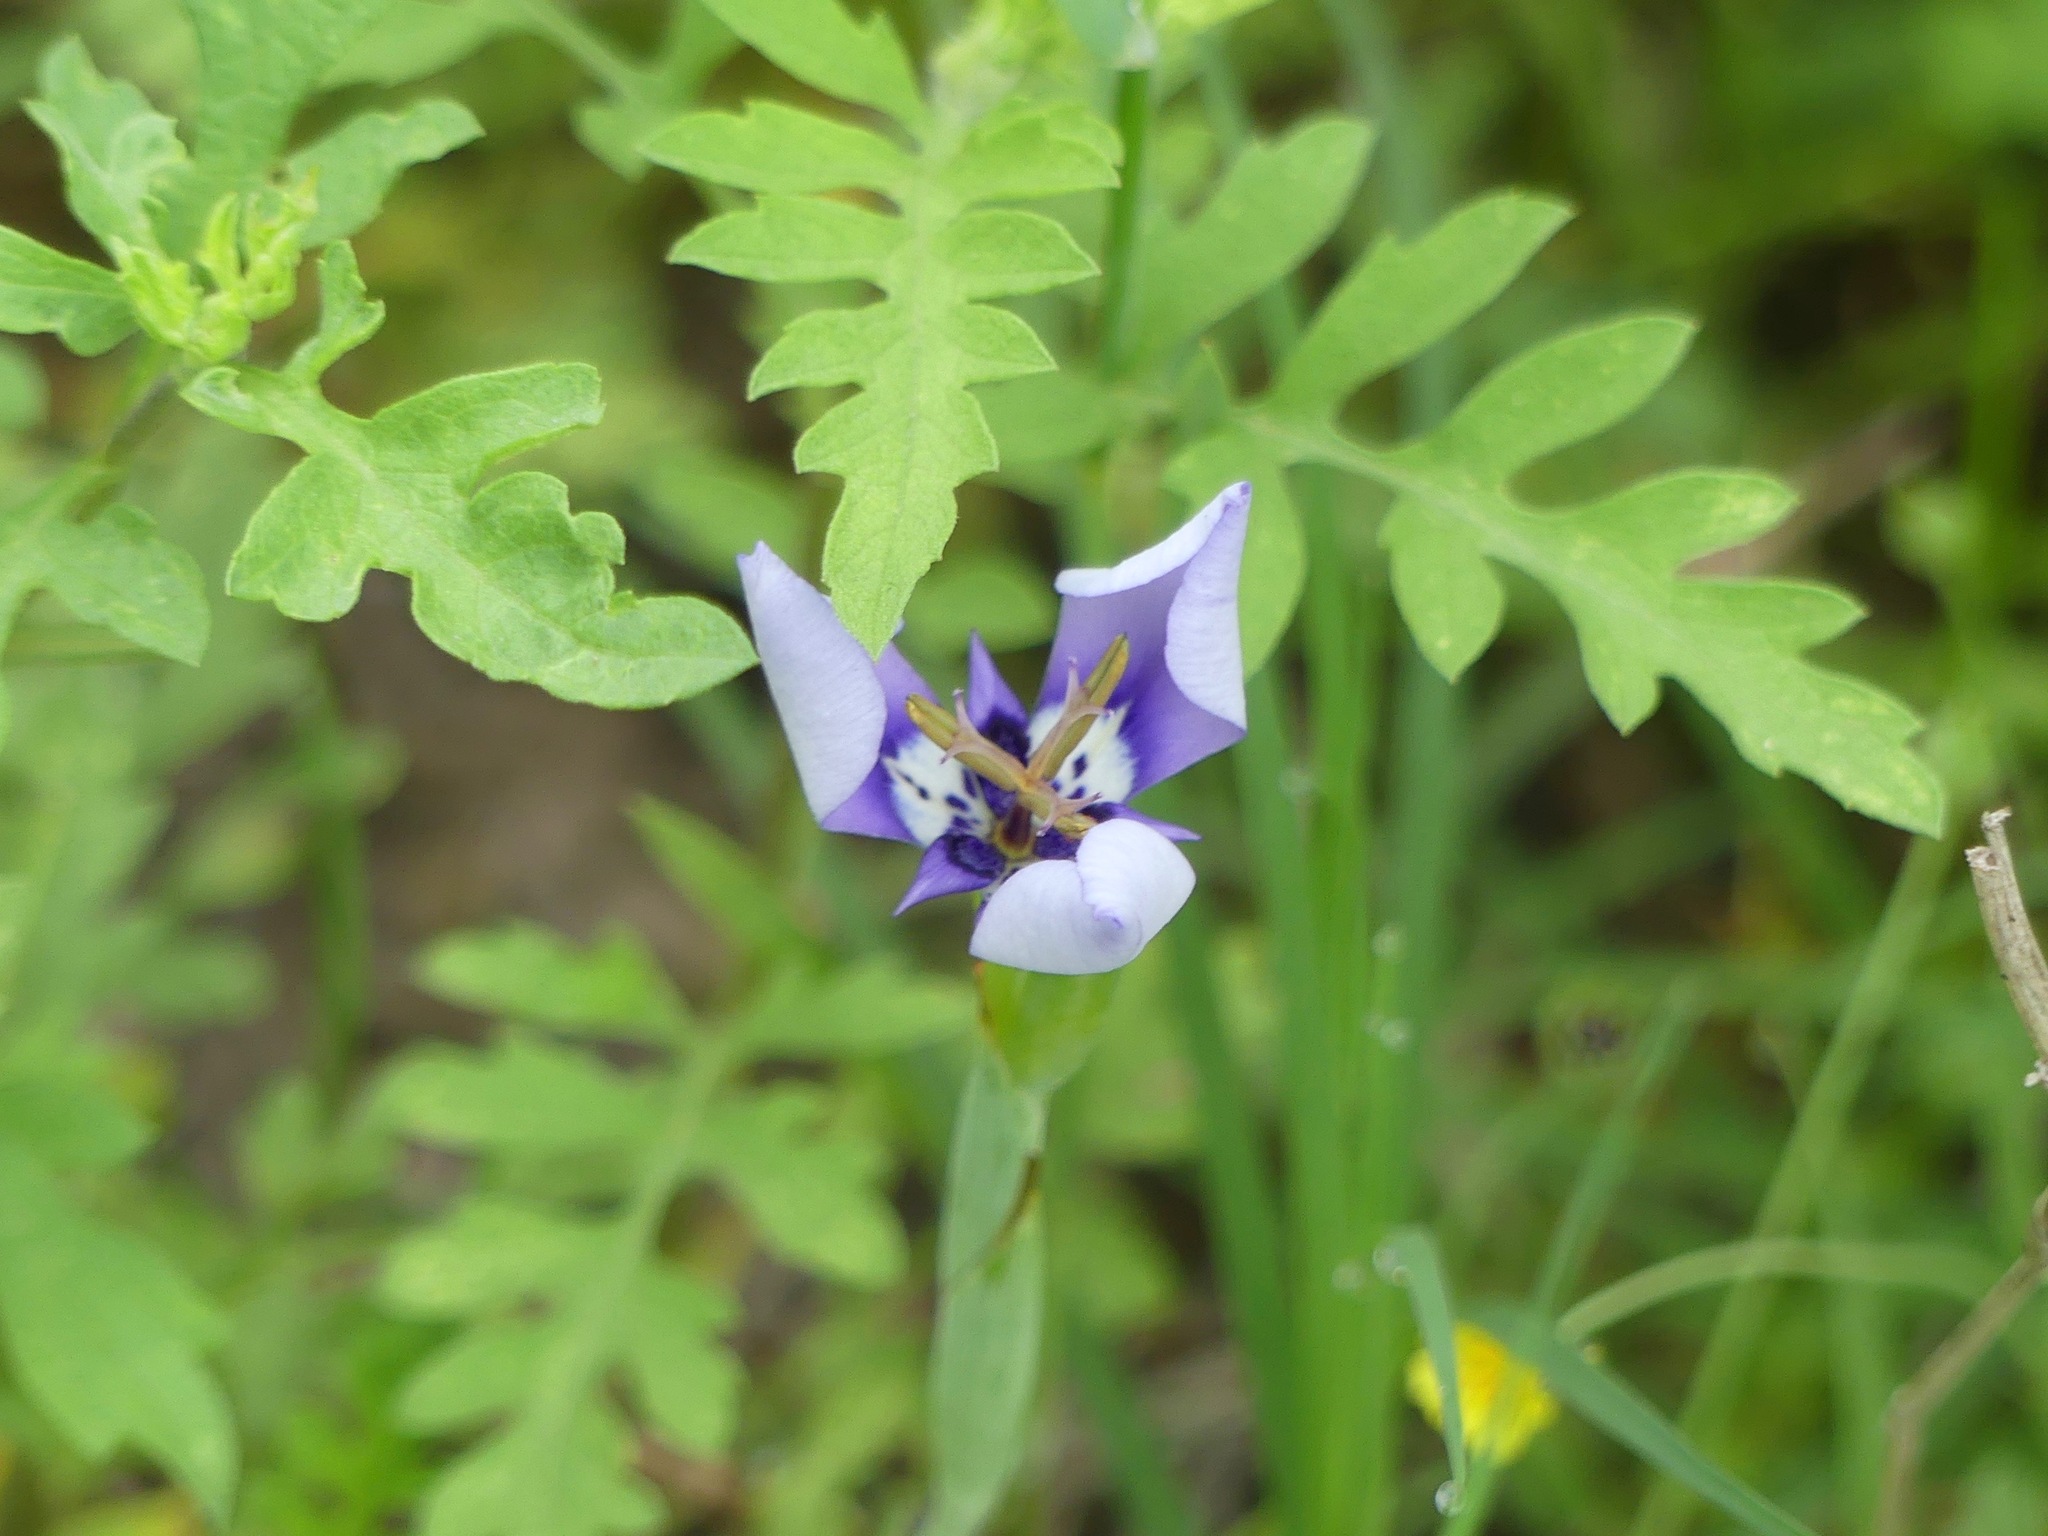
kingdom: Plantae
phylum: Tracheophyta
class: Liliopsida
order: Asparagales
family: Iridaceae
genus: Herbertia
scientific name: Herbertia lahue
